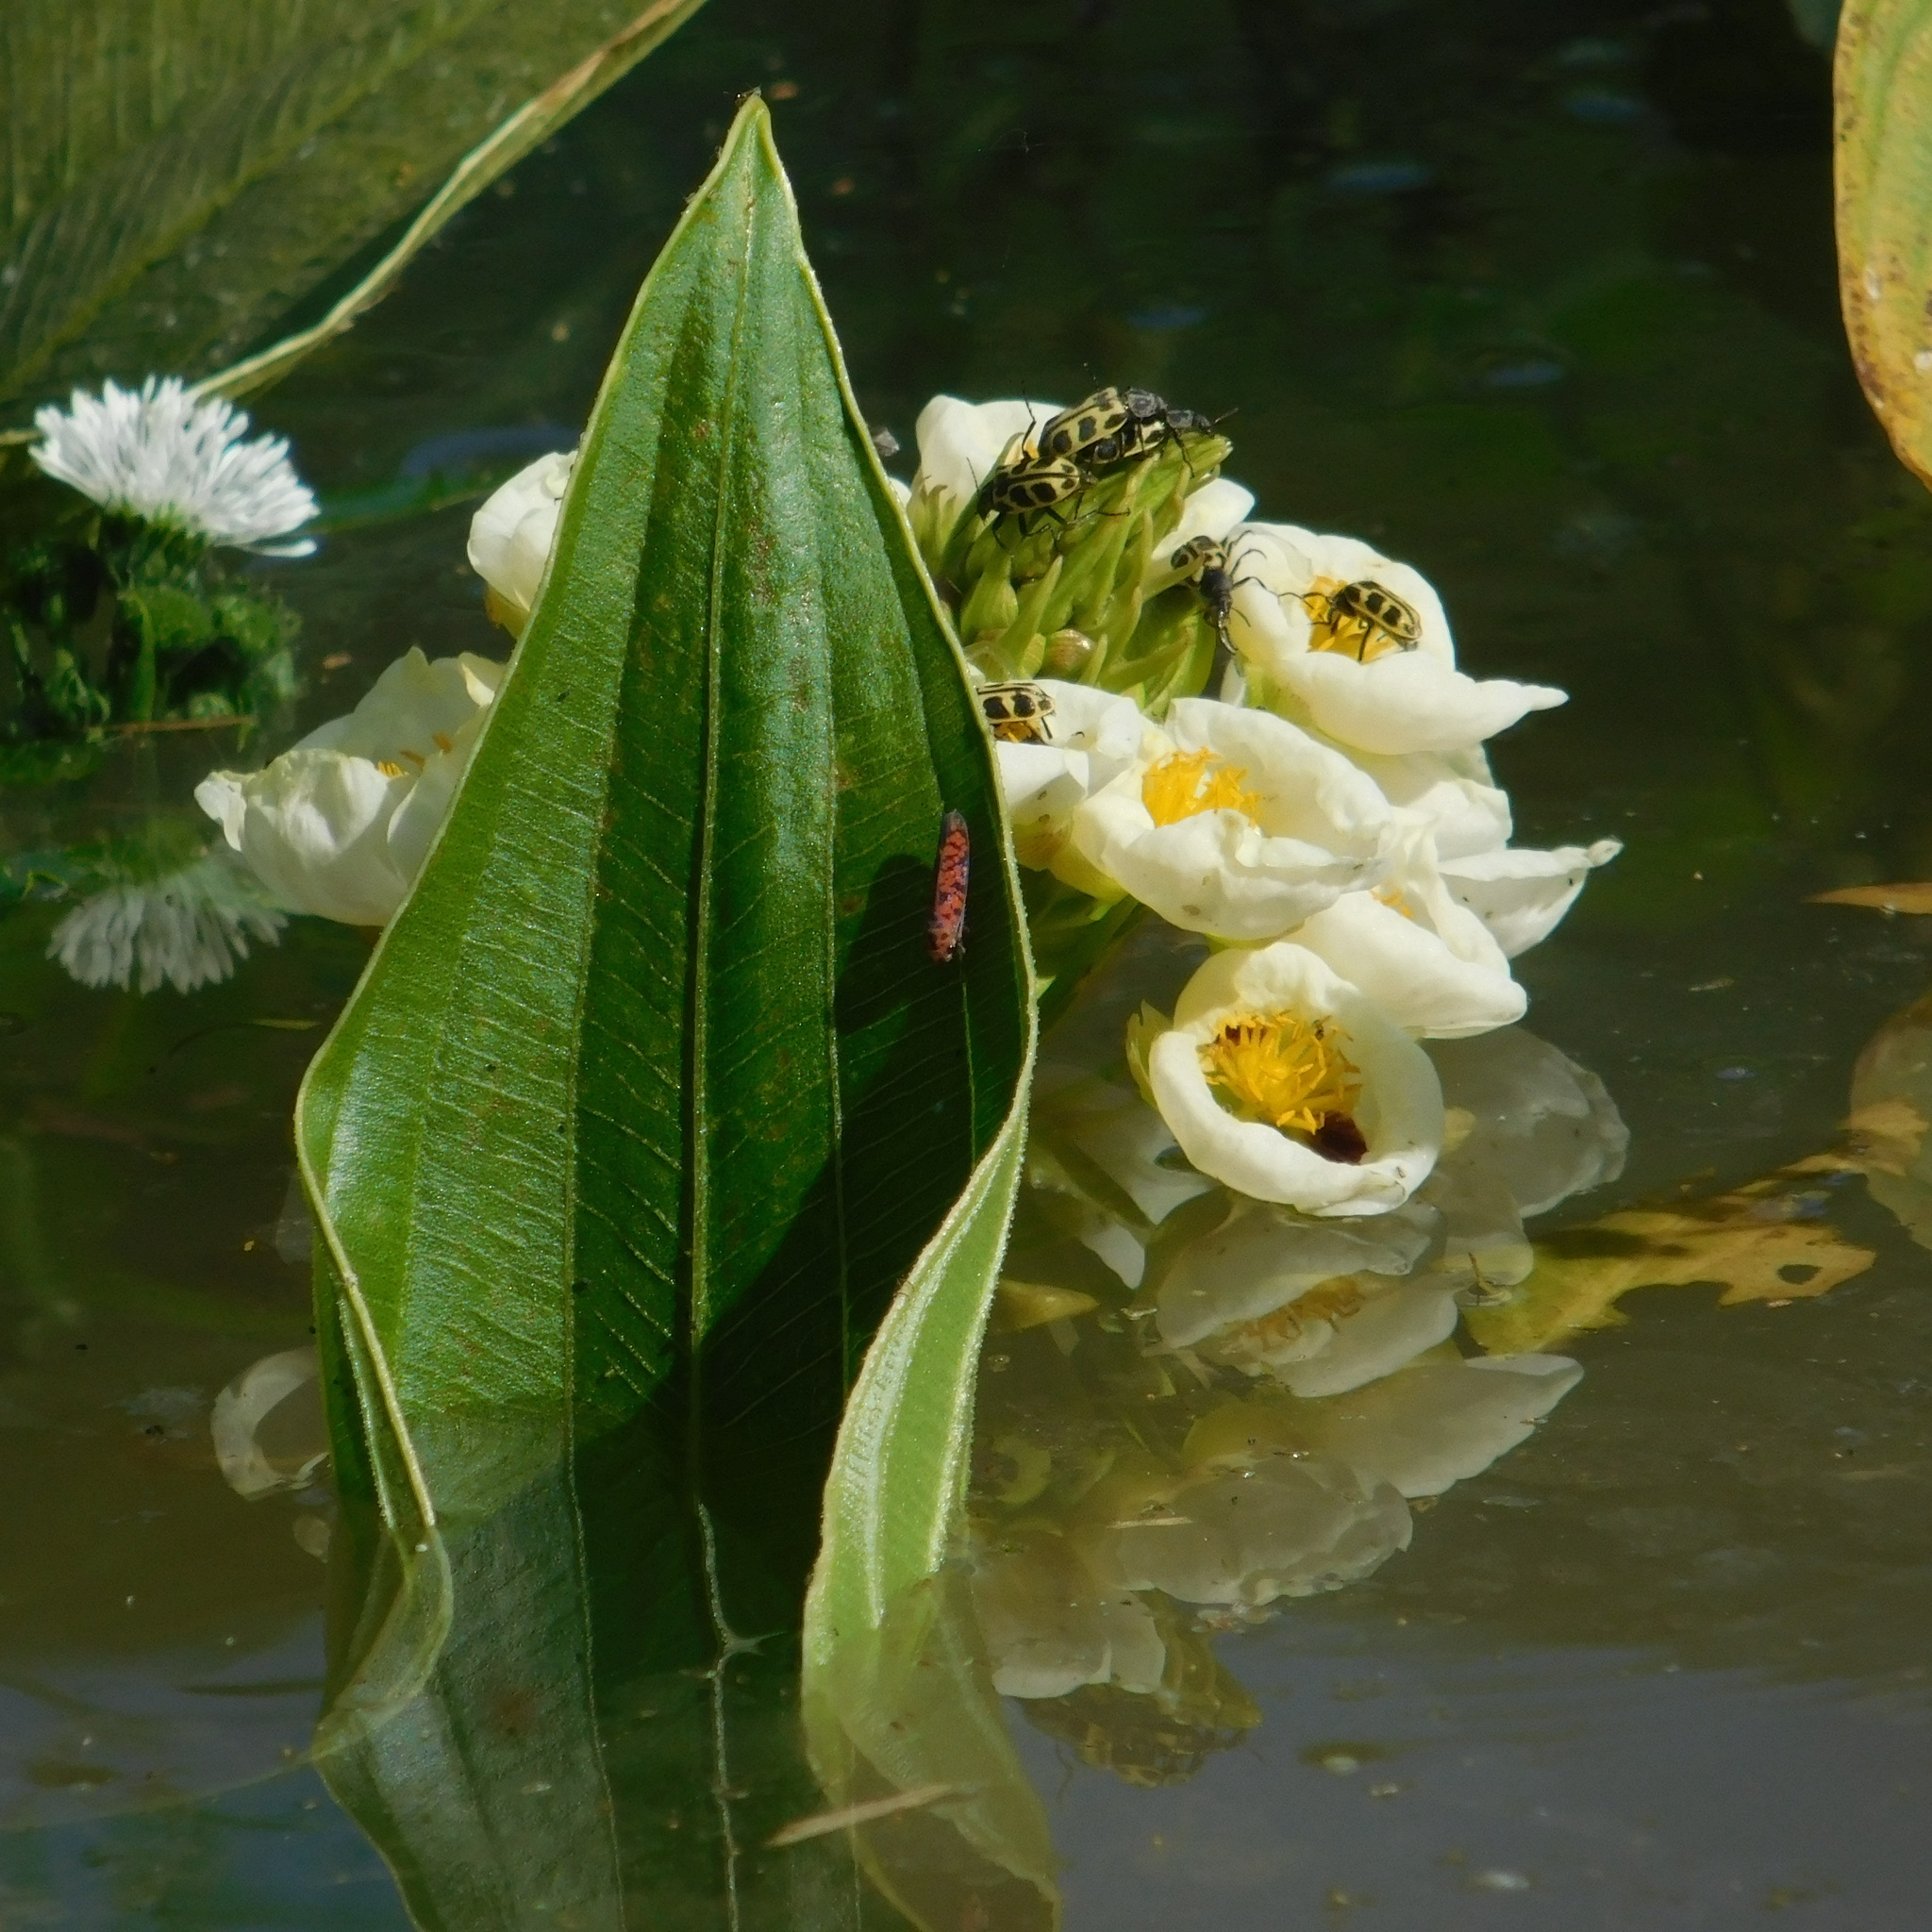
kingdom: Animalia
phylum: Arthropoda
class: Insecta
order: Hemiptera
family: Cicadellidae
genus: Pawiloma
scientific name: Pawiloma victima
